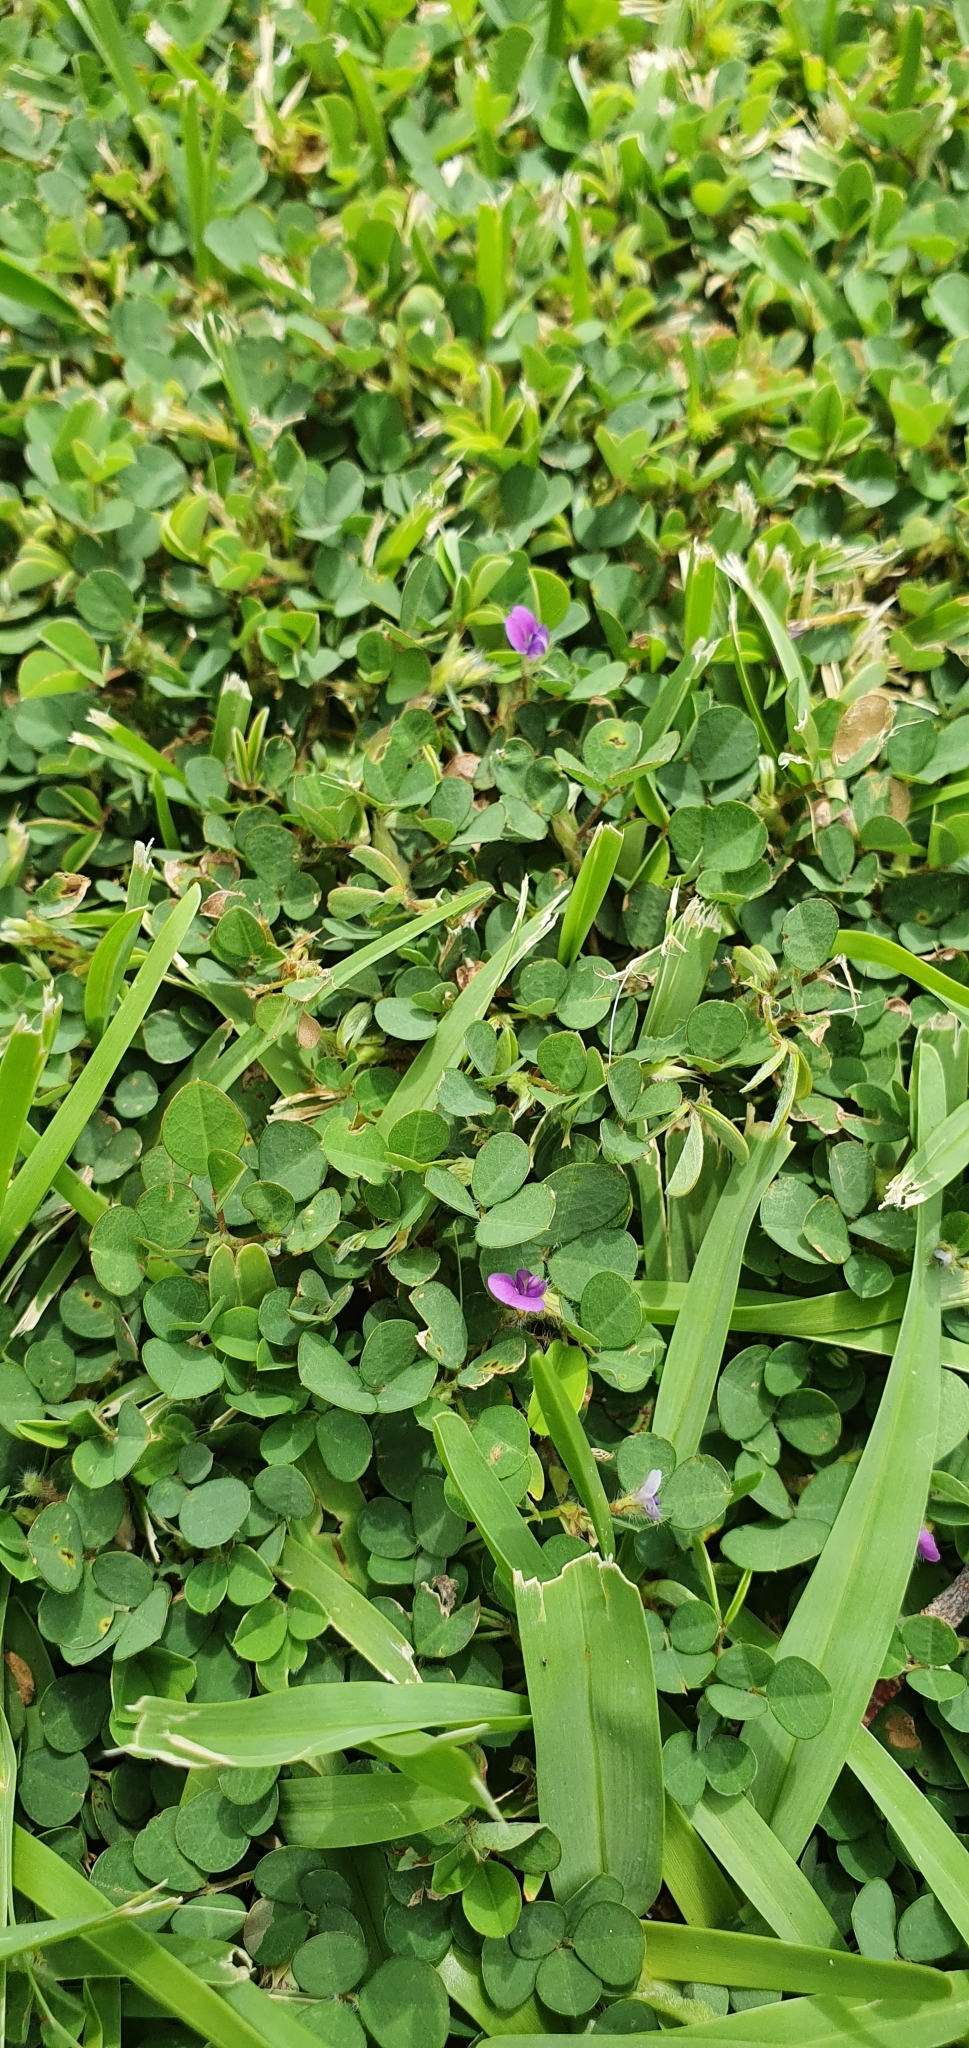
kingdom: Plantae
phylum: Tracheophyta
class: Magnoliopsida
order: Fabales
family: Fabaceae
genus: Grona
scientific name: Grona triflora
